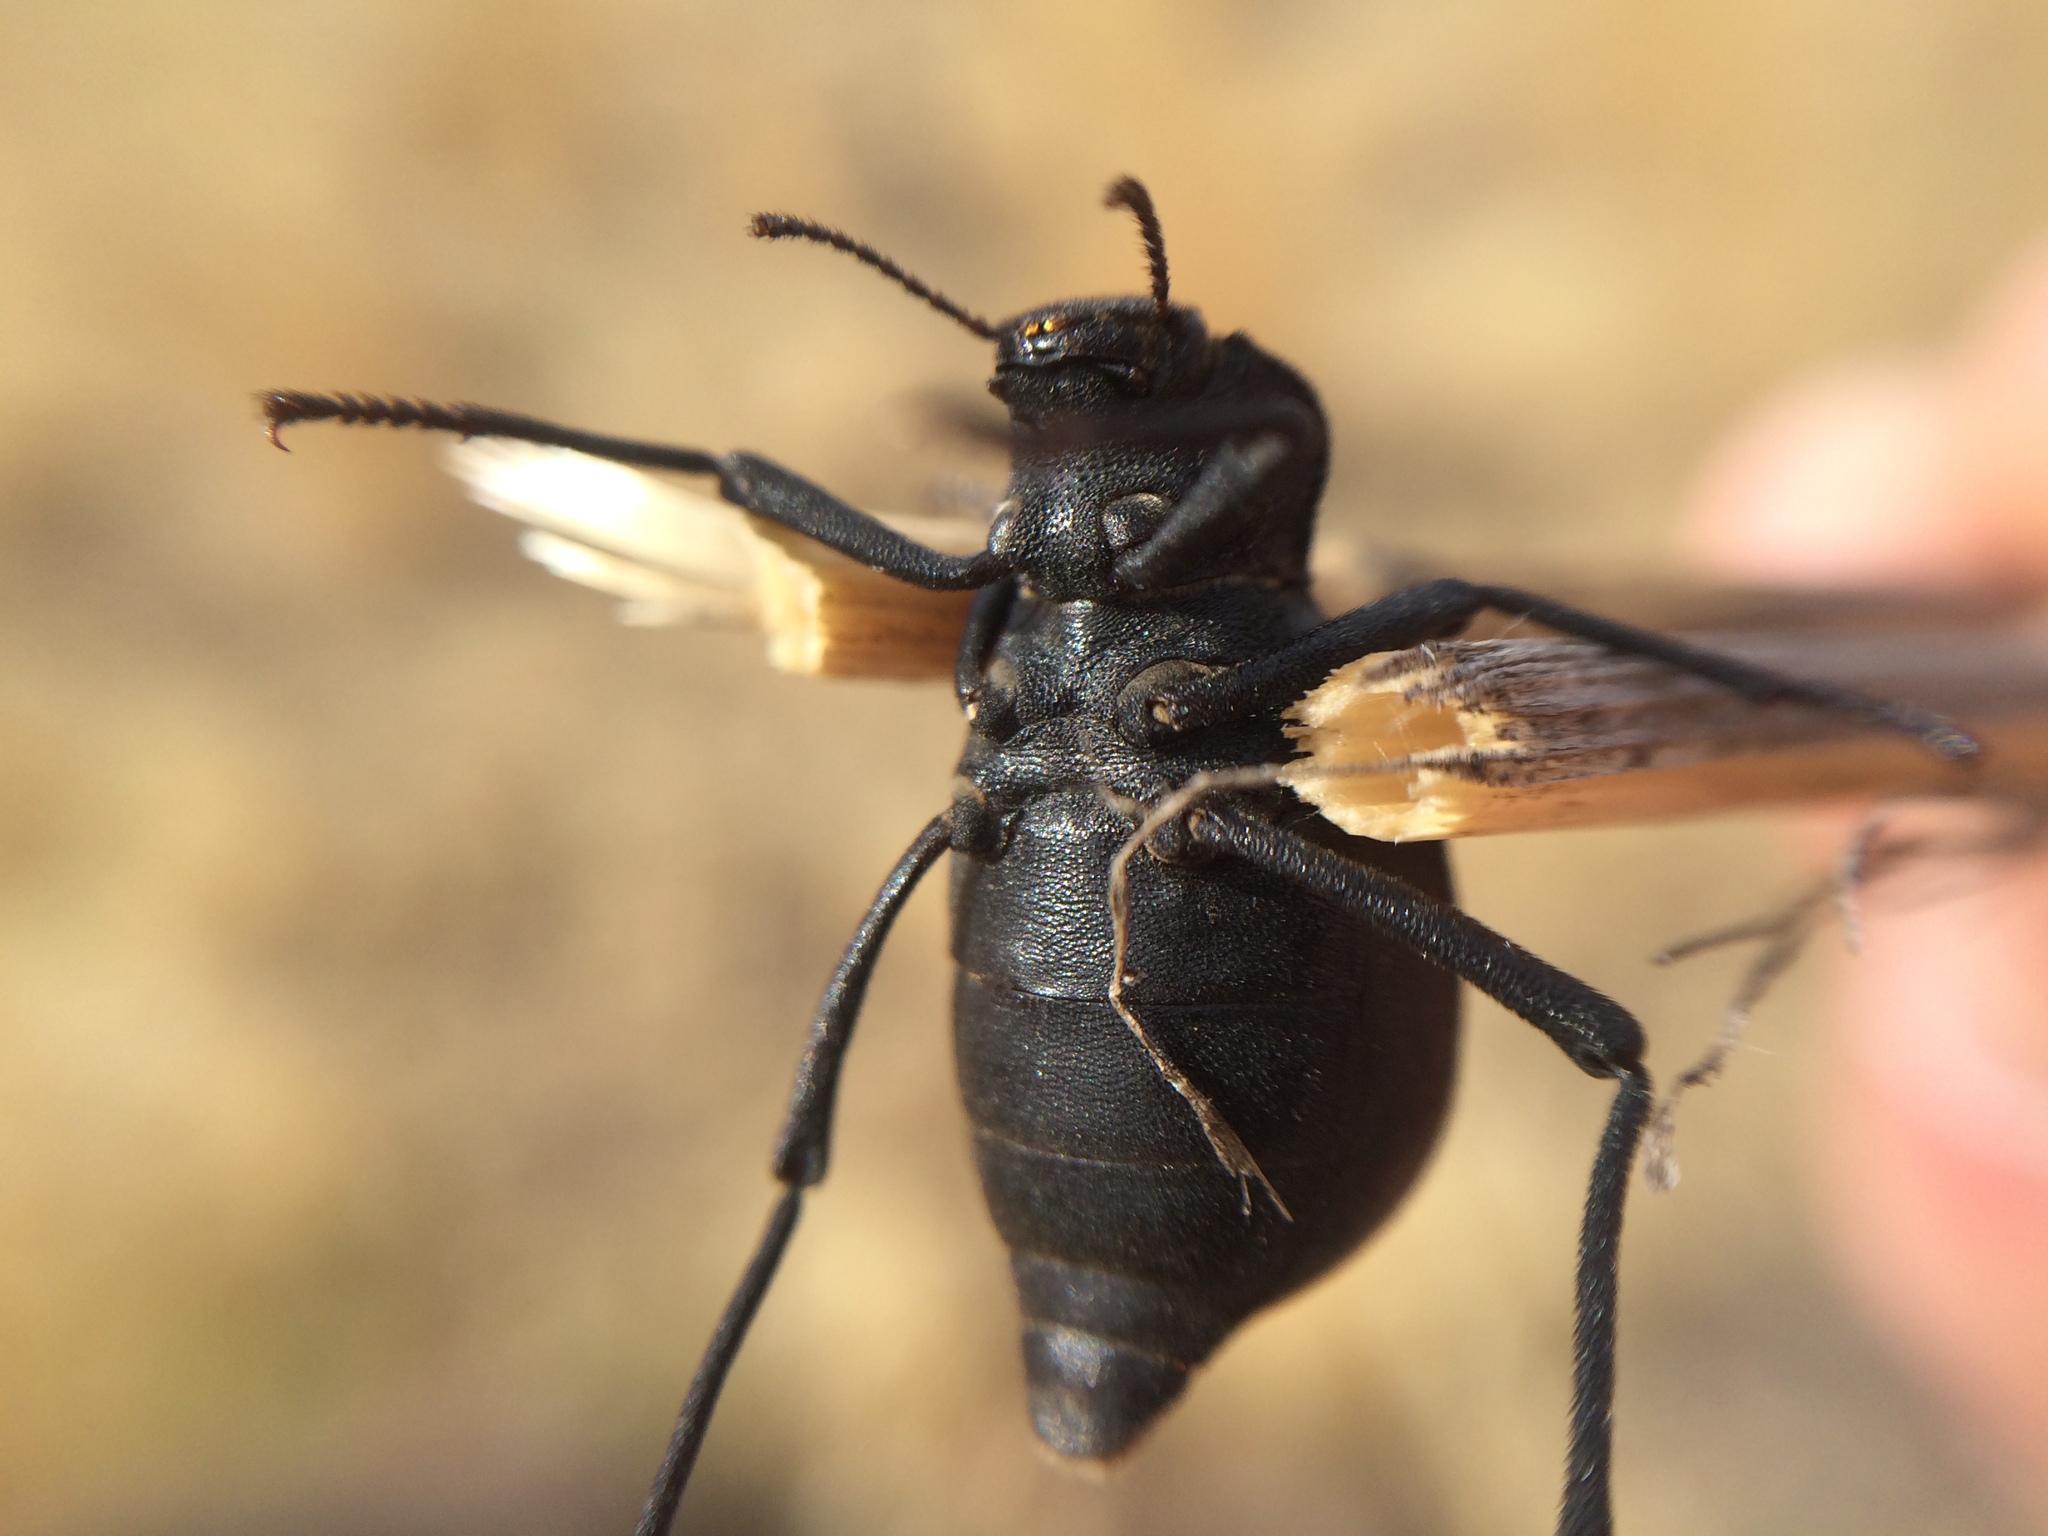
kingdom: Animalia
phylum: Arthropoda
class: Insecta
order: Coleoptera
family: Tenebrionidae
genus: Philolithus
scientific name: Philolithus densicollis
